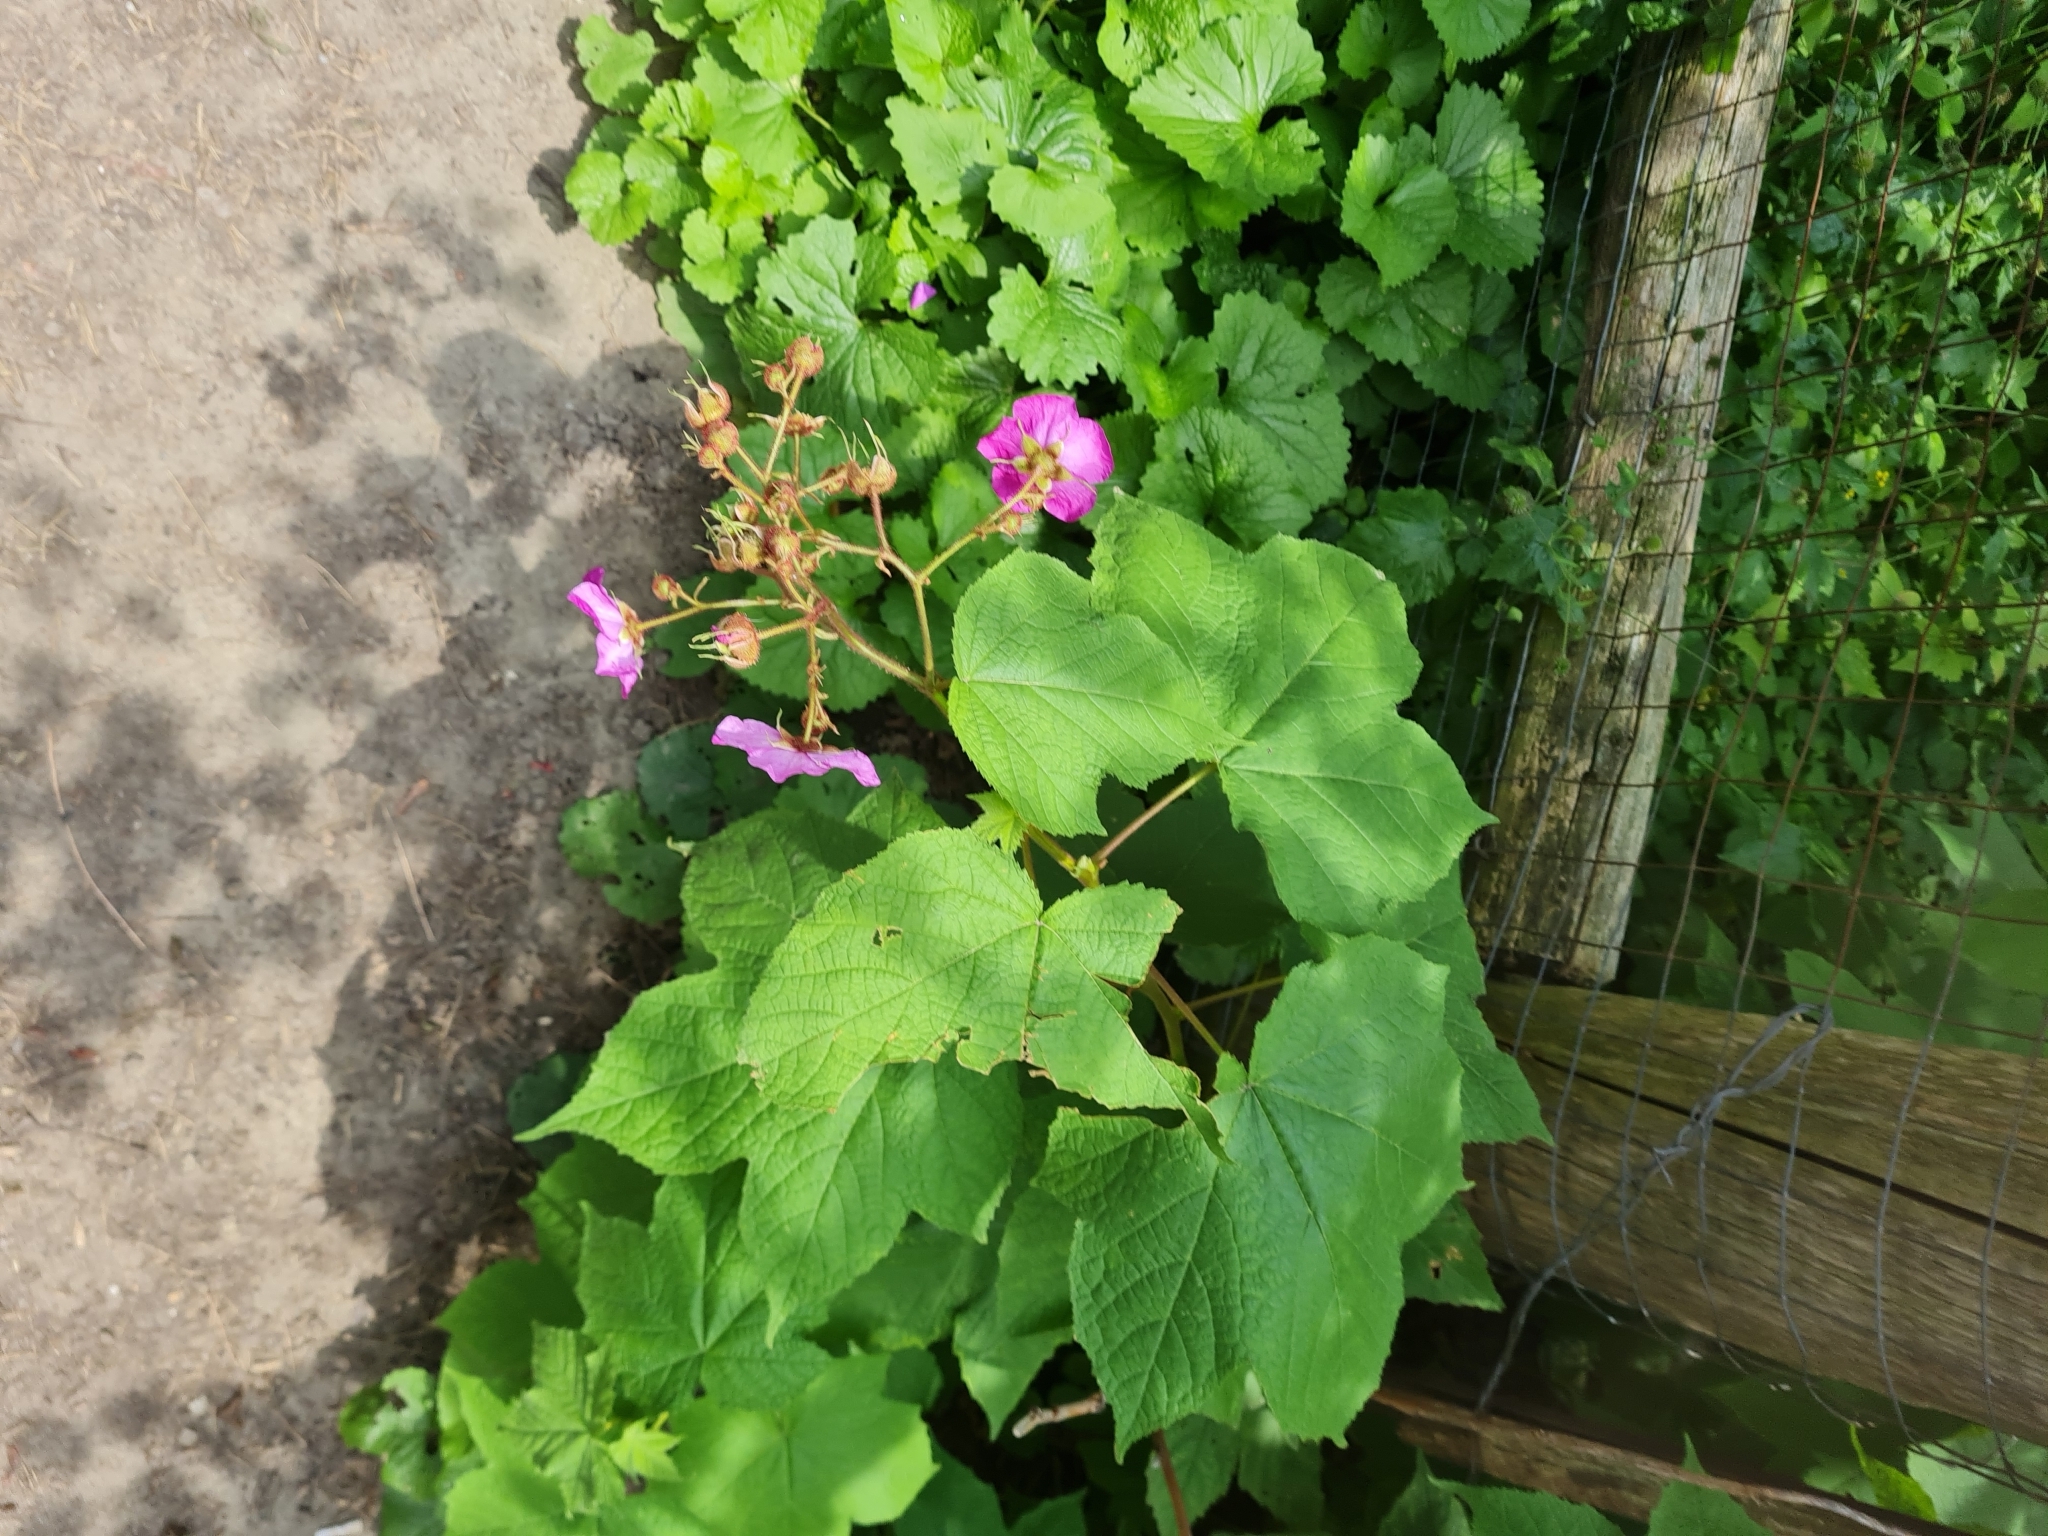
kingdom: Plantae
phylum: Tracheophyta
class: Magnoliopsida
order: Rosales
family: Rosaceae
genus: Rubus
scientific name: Rubus odoratus
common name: Purple-flowered raspberry
